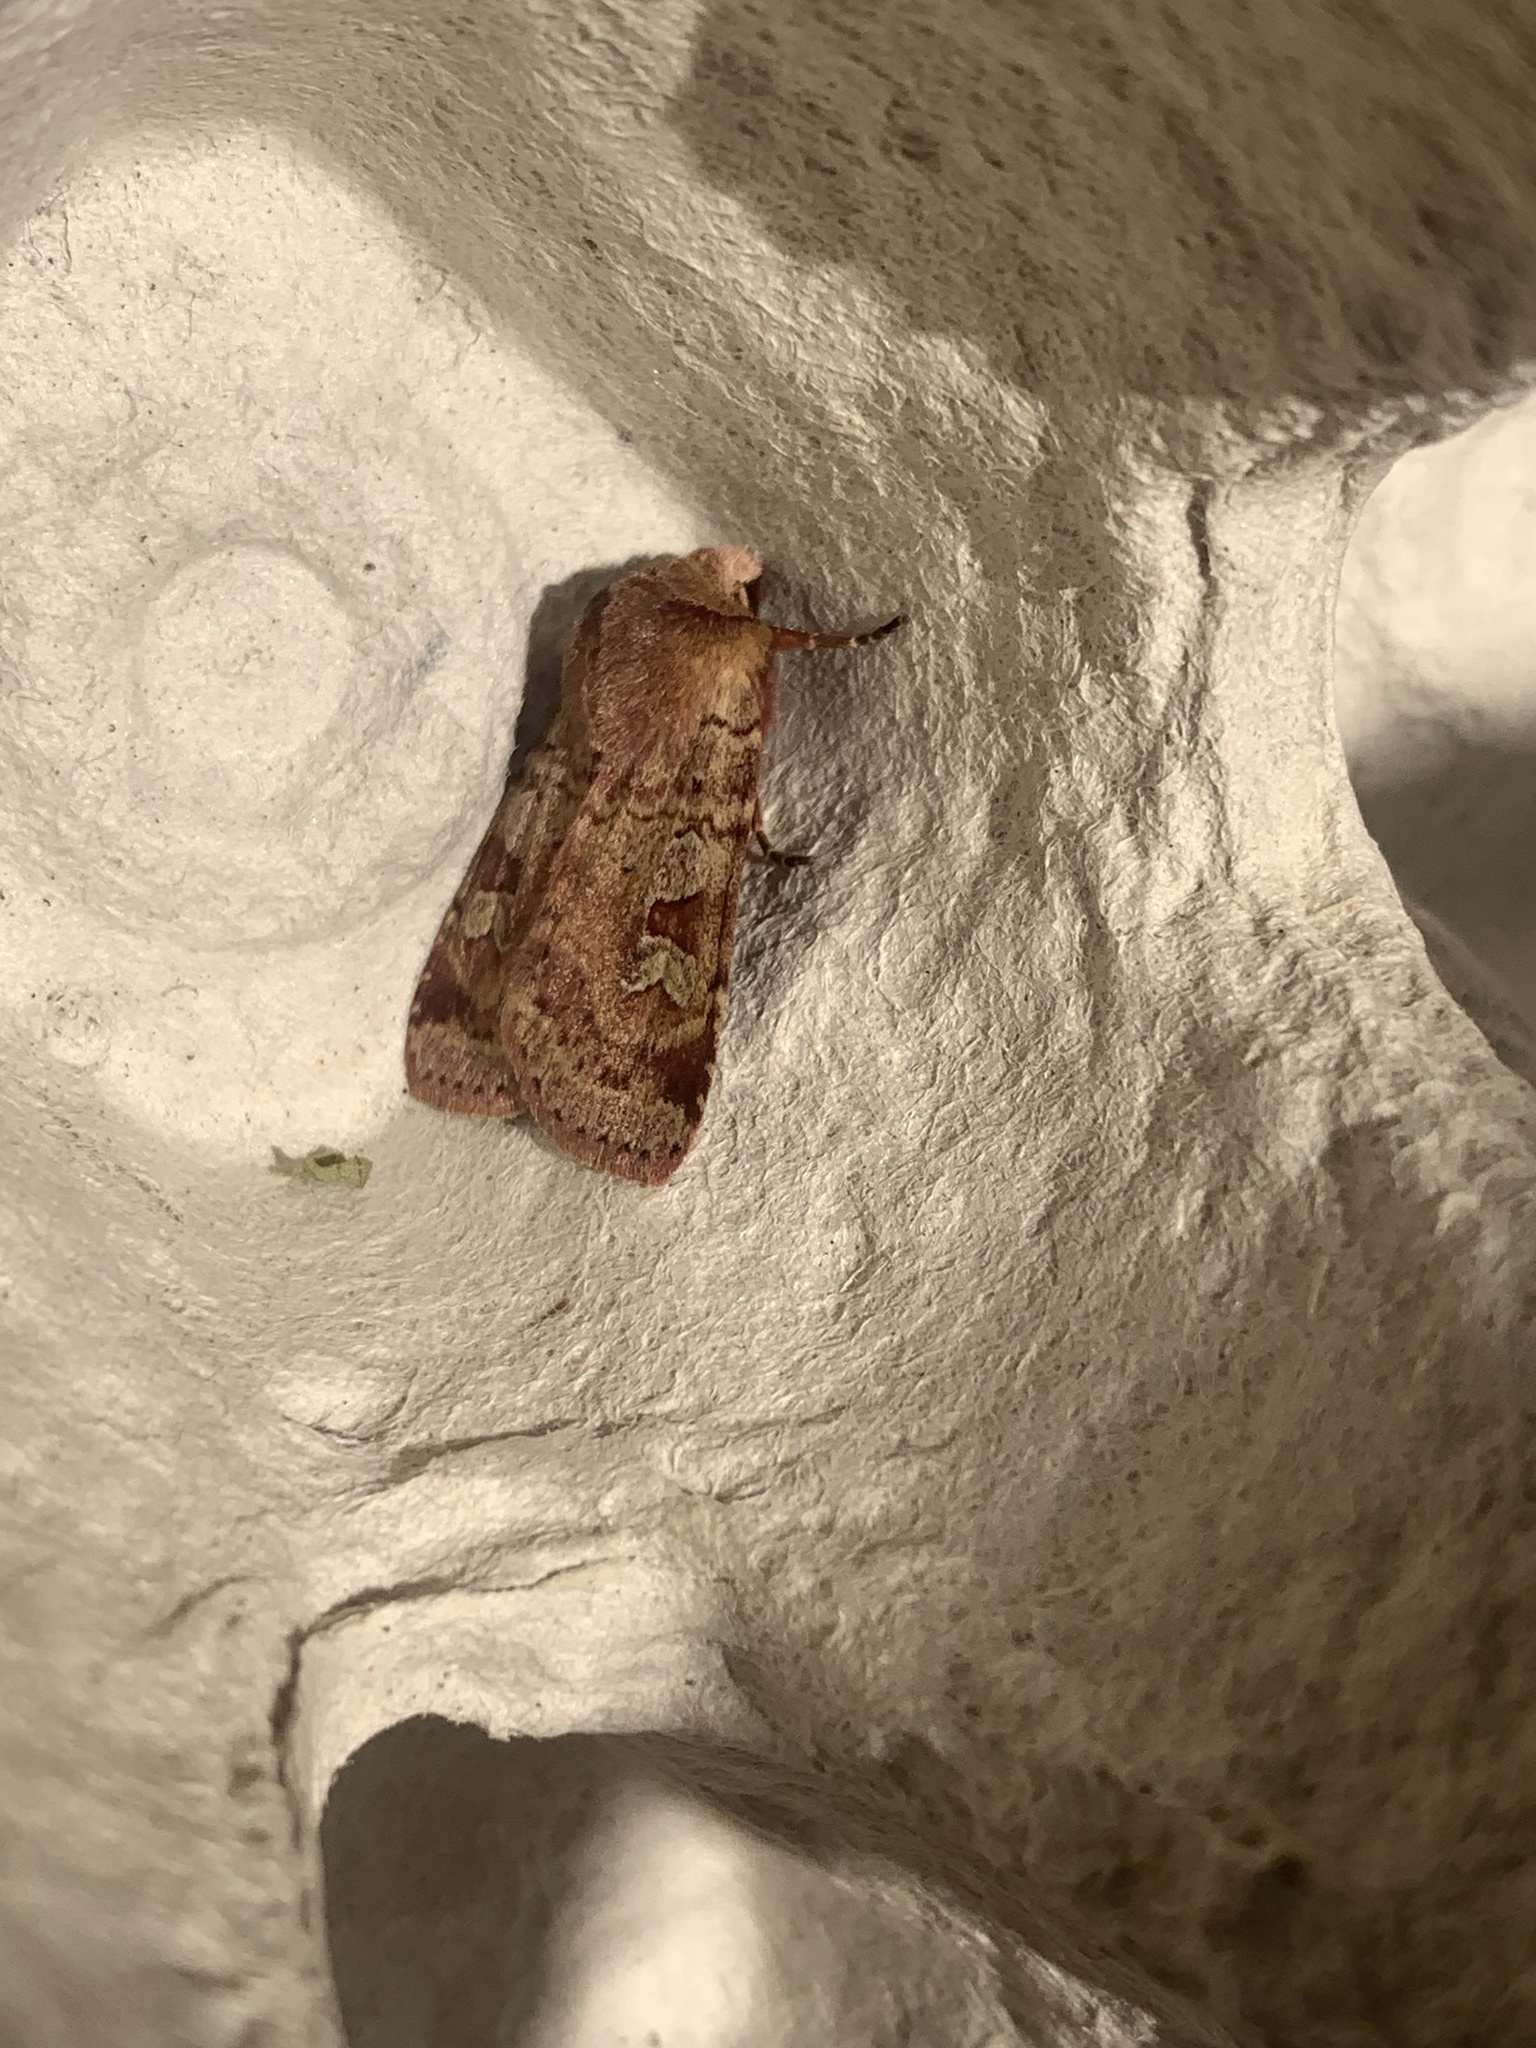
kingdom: Animalia
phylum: Arthropoda
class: Insecta
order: Lepidoptera
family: Noctuidae
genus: Diarsia
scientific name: Diarsia mendica
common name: Ingrailed clay
